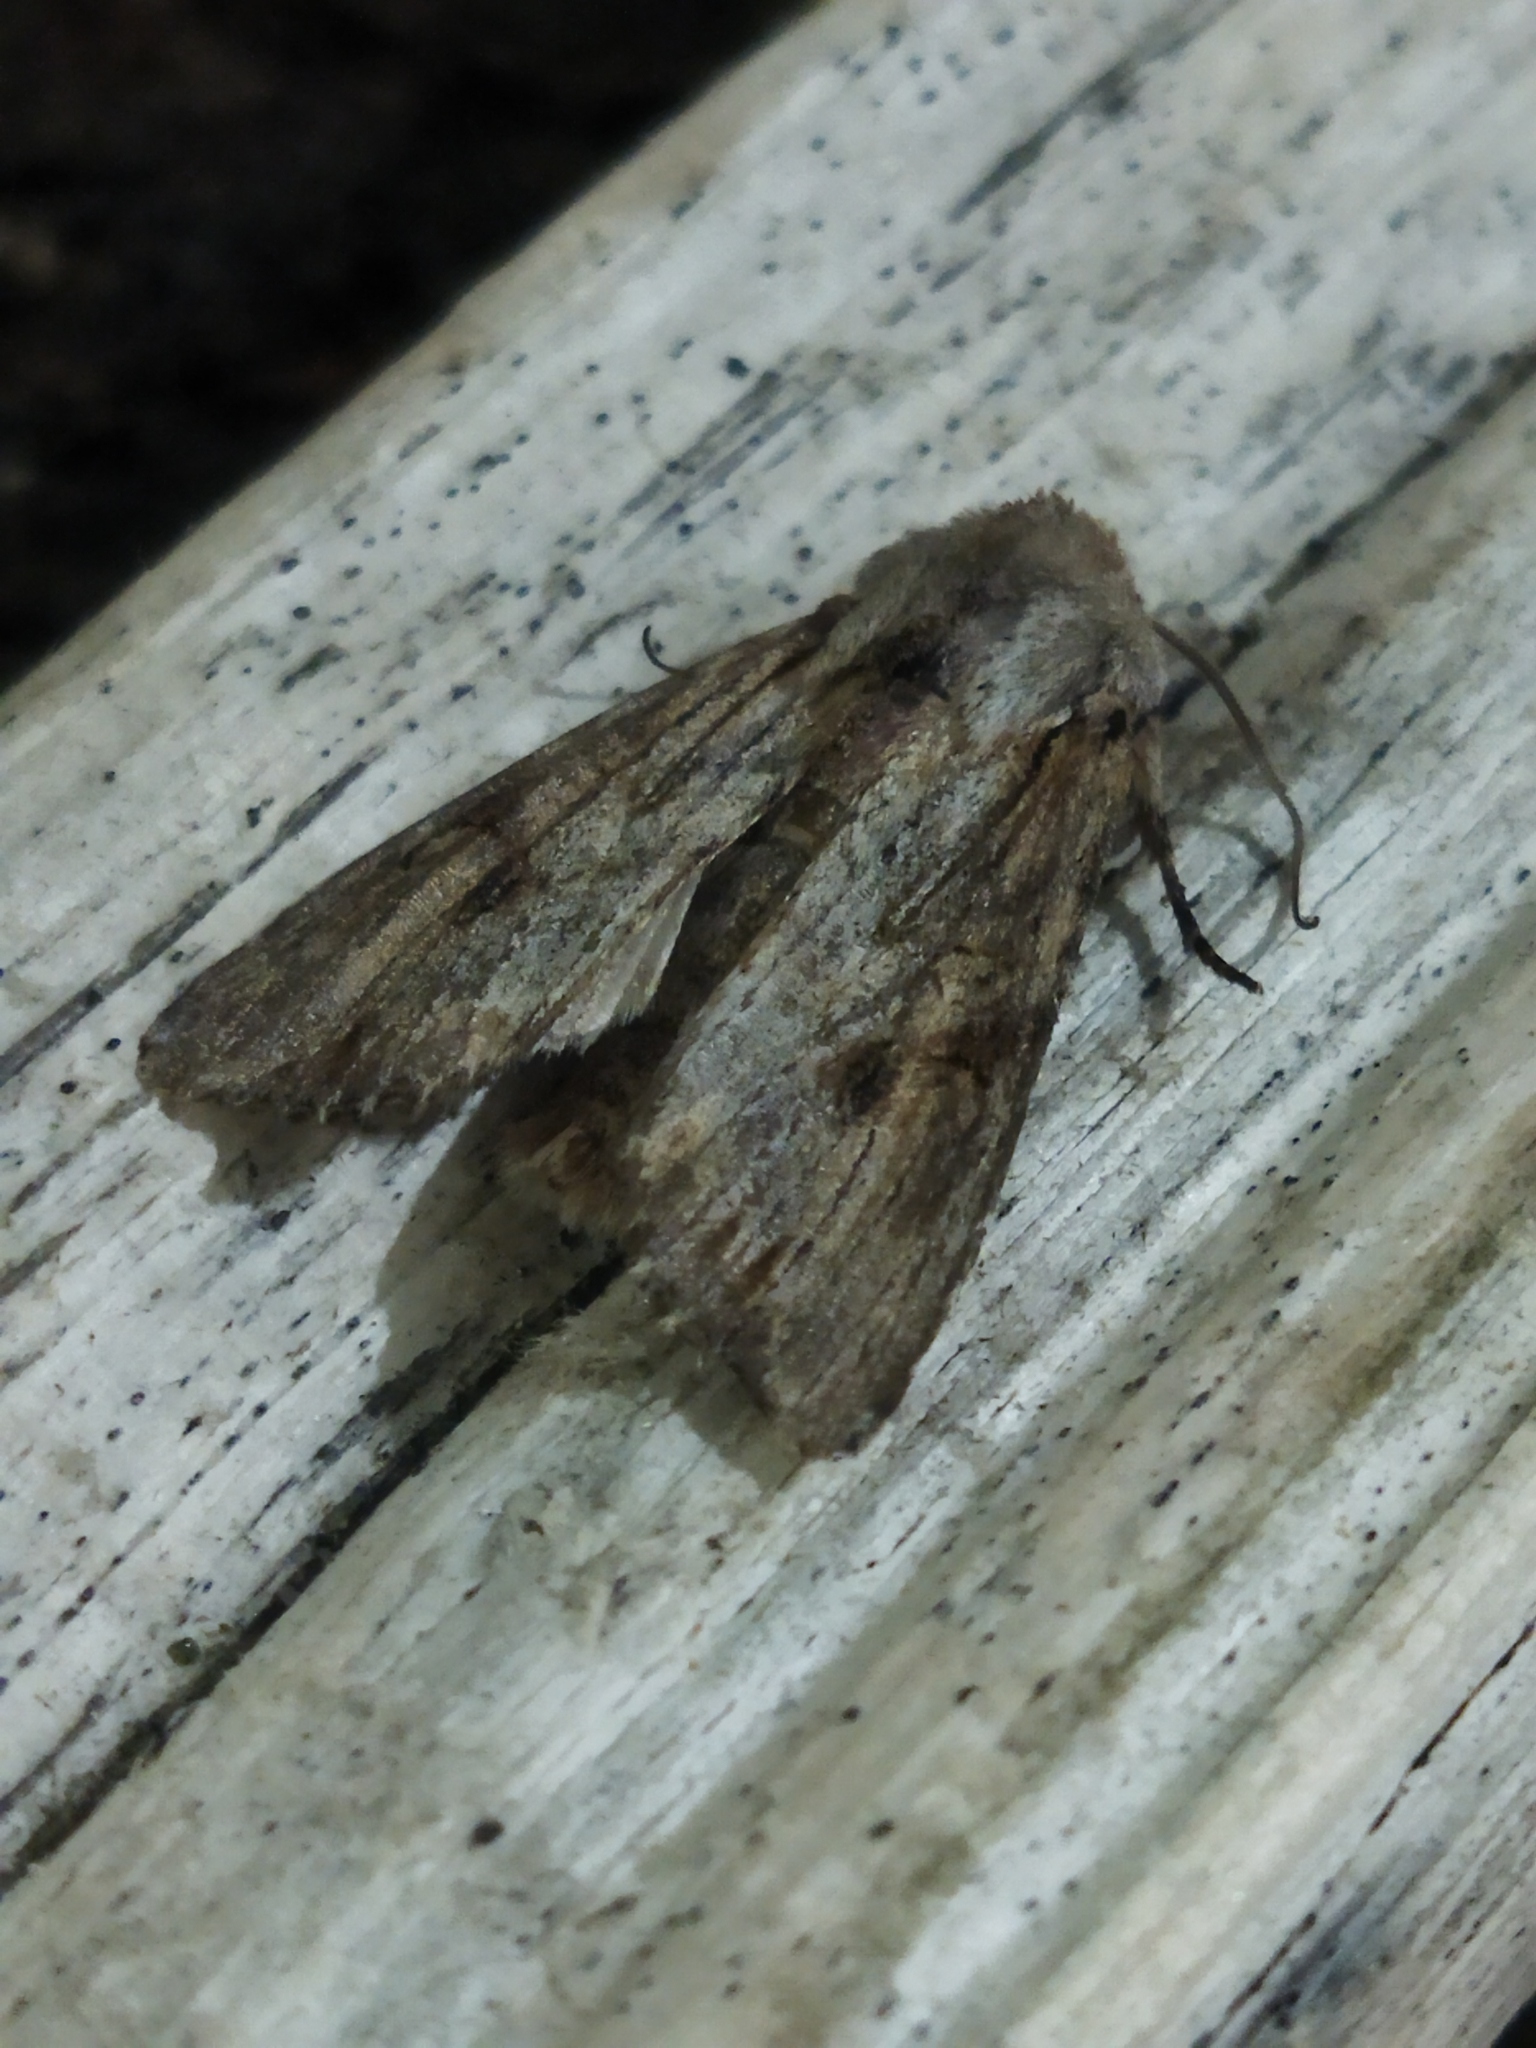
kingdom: Animalia
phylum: Arthropoda
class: Insecta
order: Lepidoptera
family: Noctuidae
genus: Egira
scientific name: Egira
